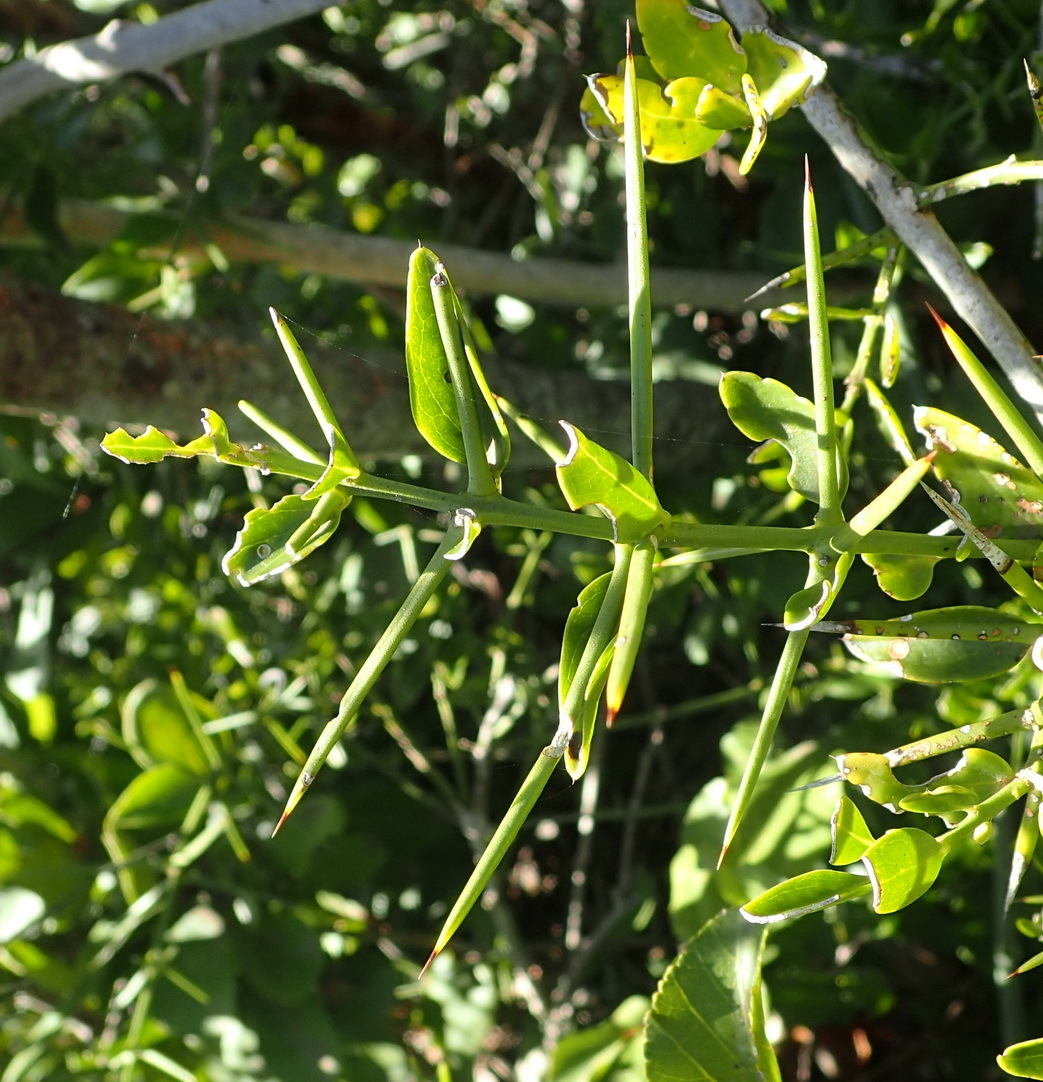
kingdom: Plantae
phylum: Tracheophyta
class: Magnoliopsida
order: Brassicales
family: Salvadoraceae
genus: Azima
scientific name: Azima tetracantha
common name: Needle bush
